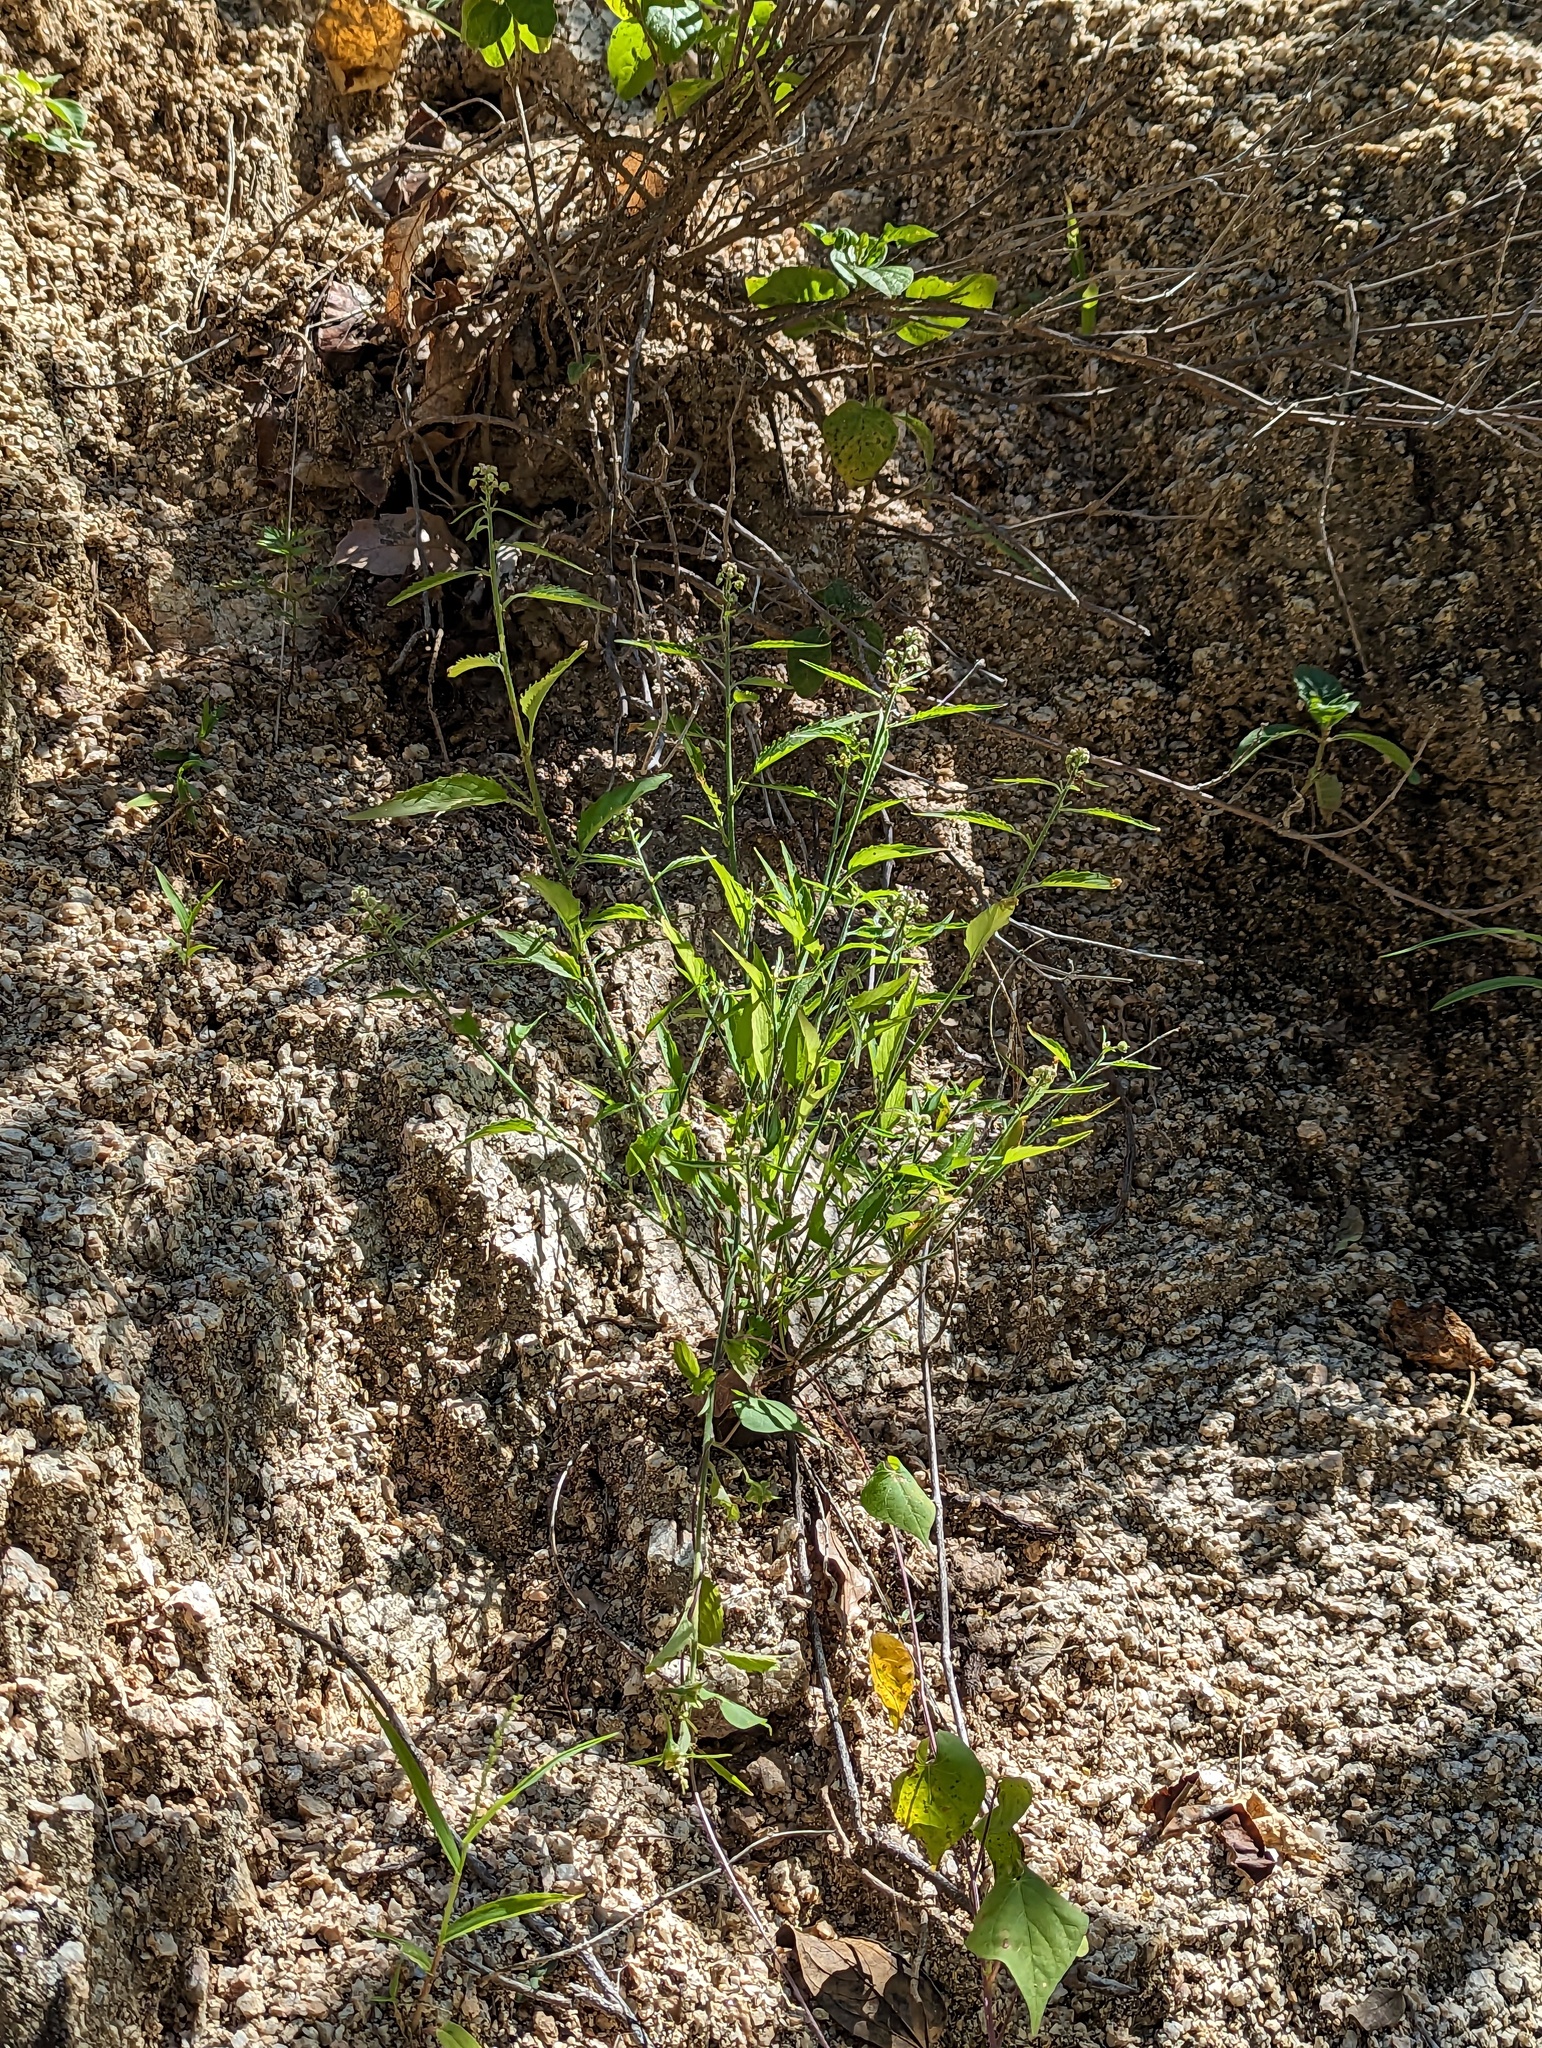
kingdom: Plantae
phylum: Tracheophyta
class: Magnoliopsida
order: Malpighiales
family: Violaceae
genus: Hybanthus
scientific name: Hybanthus fruticulosus
